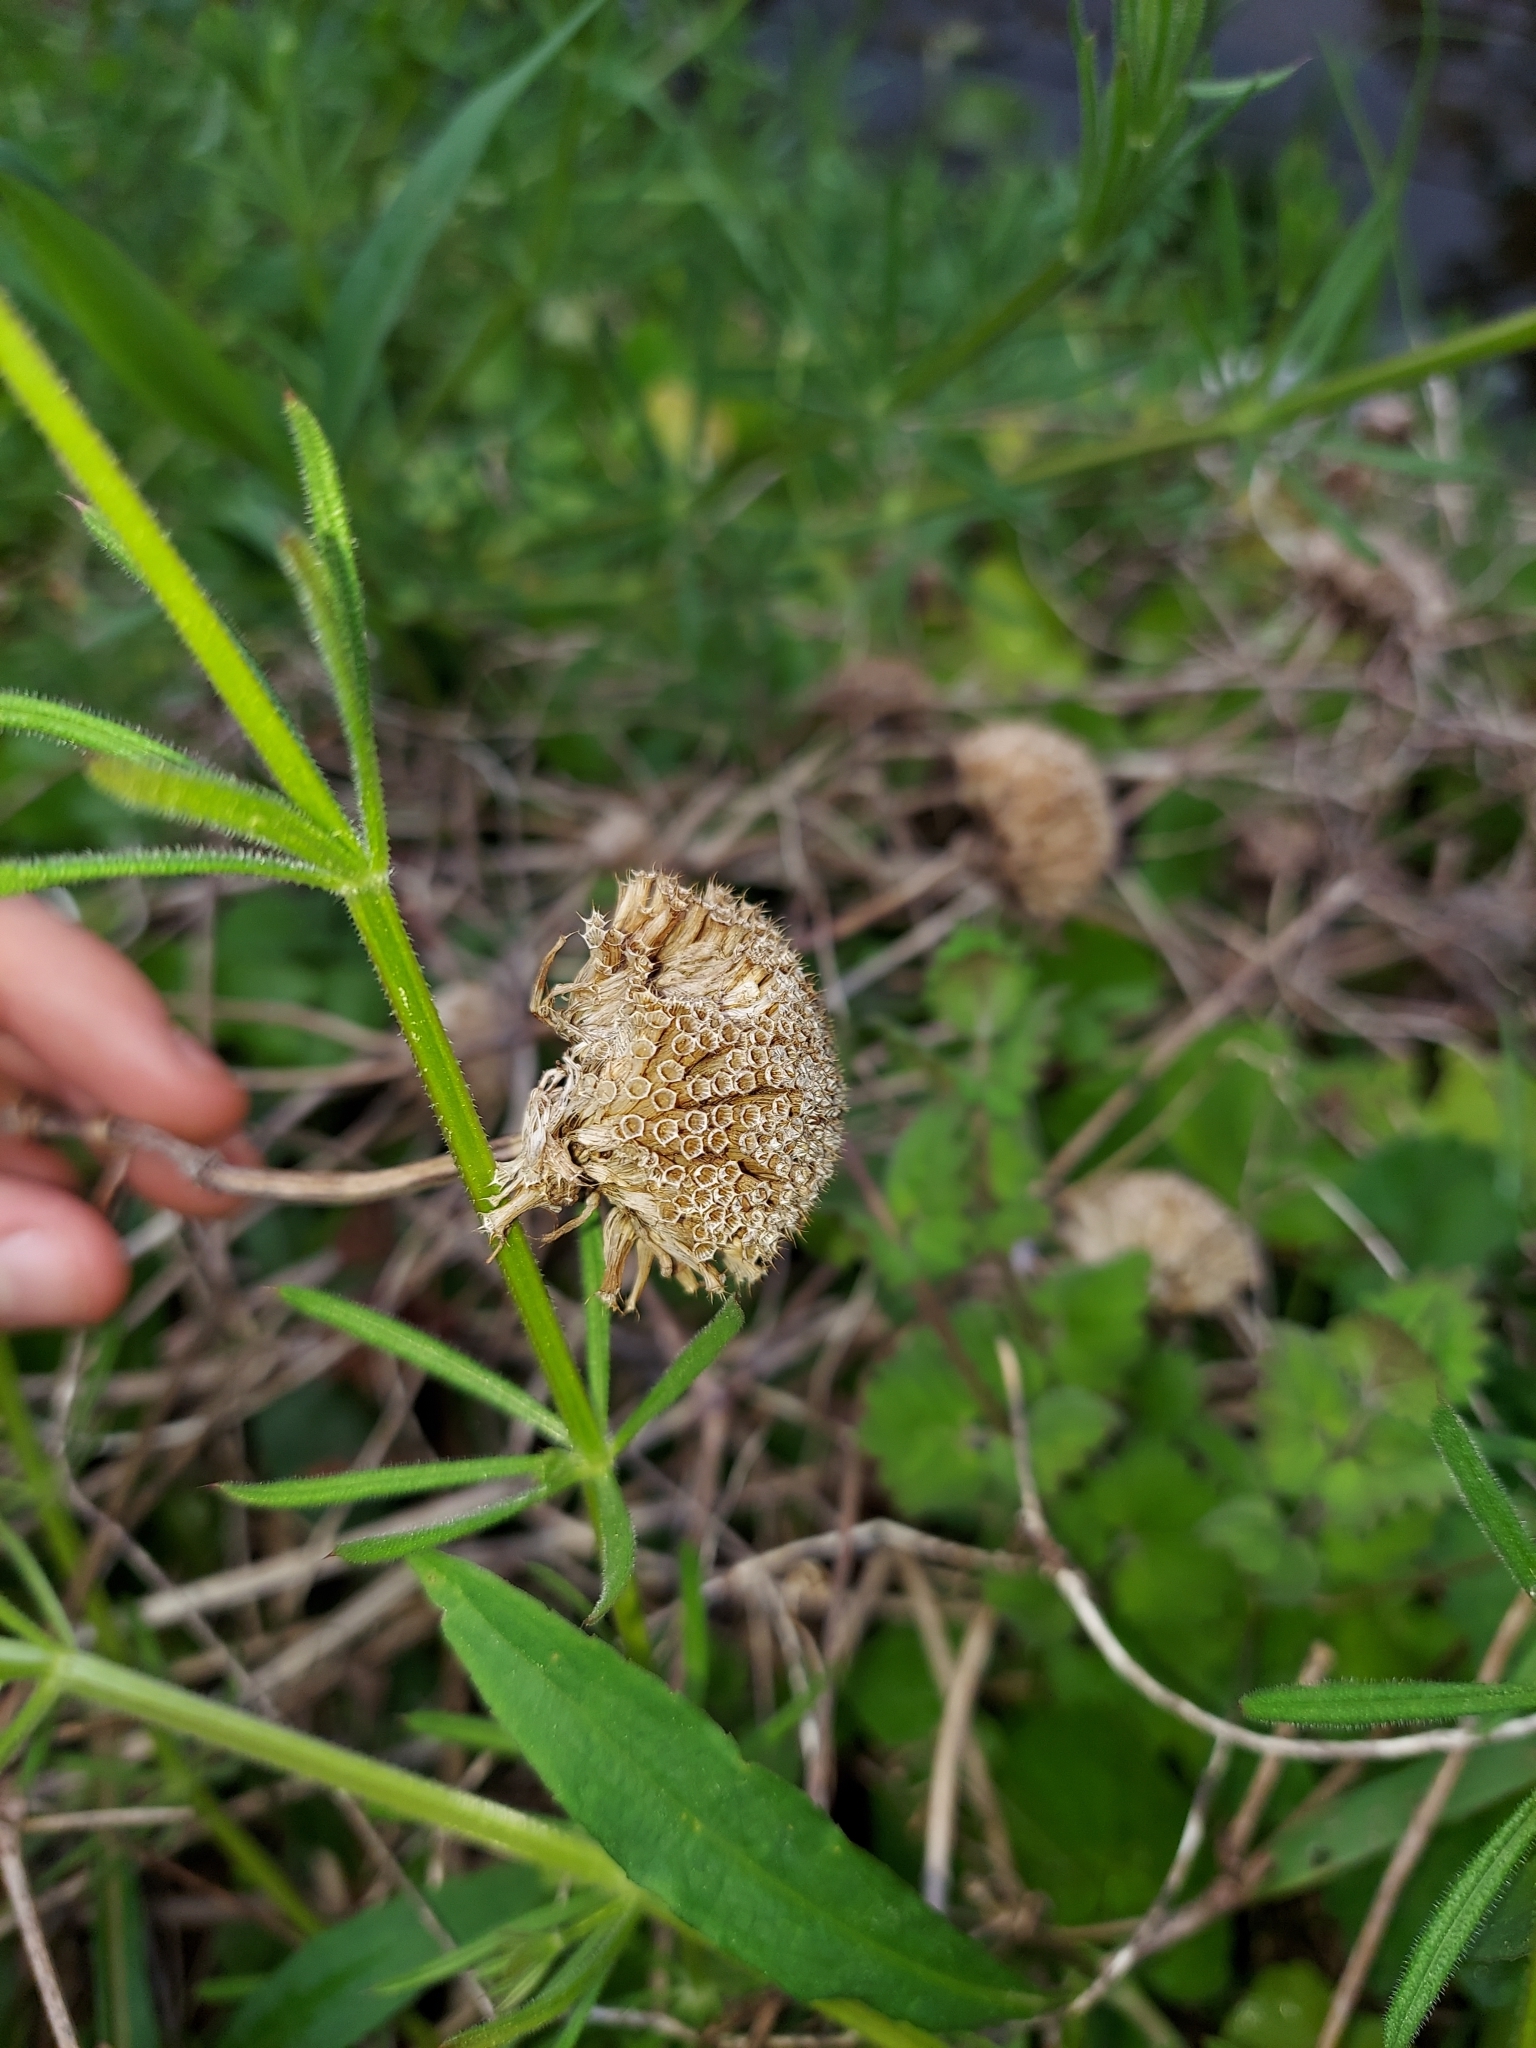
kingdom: Plantae
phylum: Tracheophyta
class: Magnoliopsida
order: Lamiales
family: Lamiaceae
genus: Monarda
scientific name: Monarda fistulosa
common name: Purple beebalm
